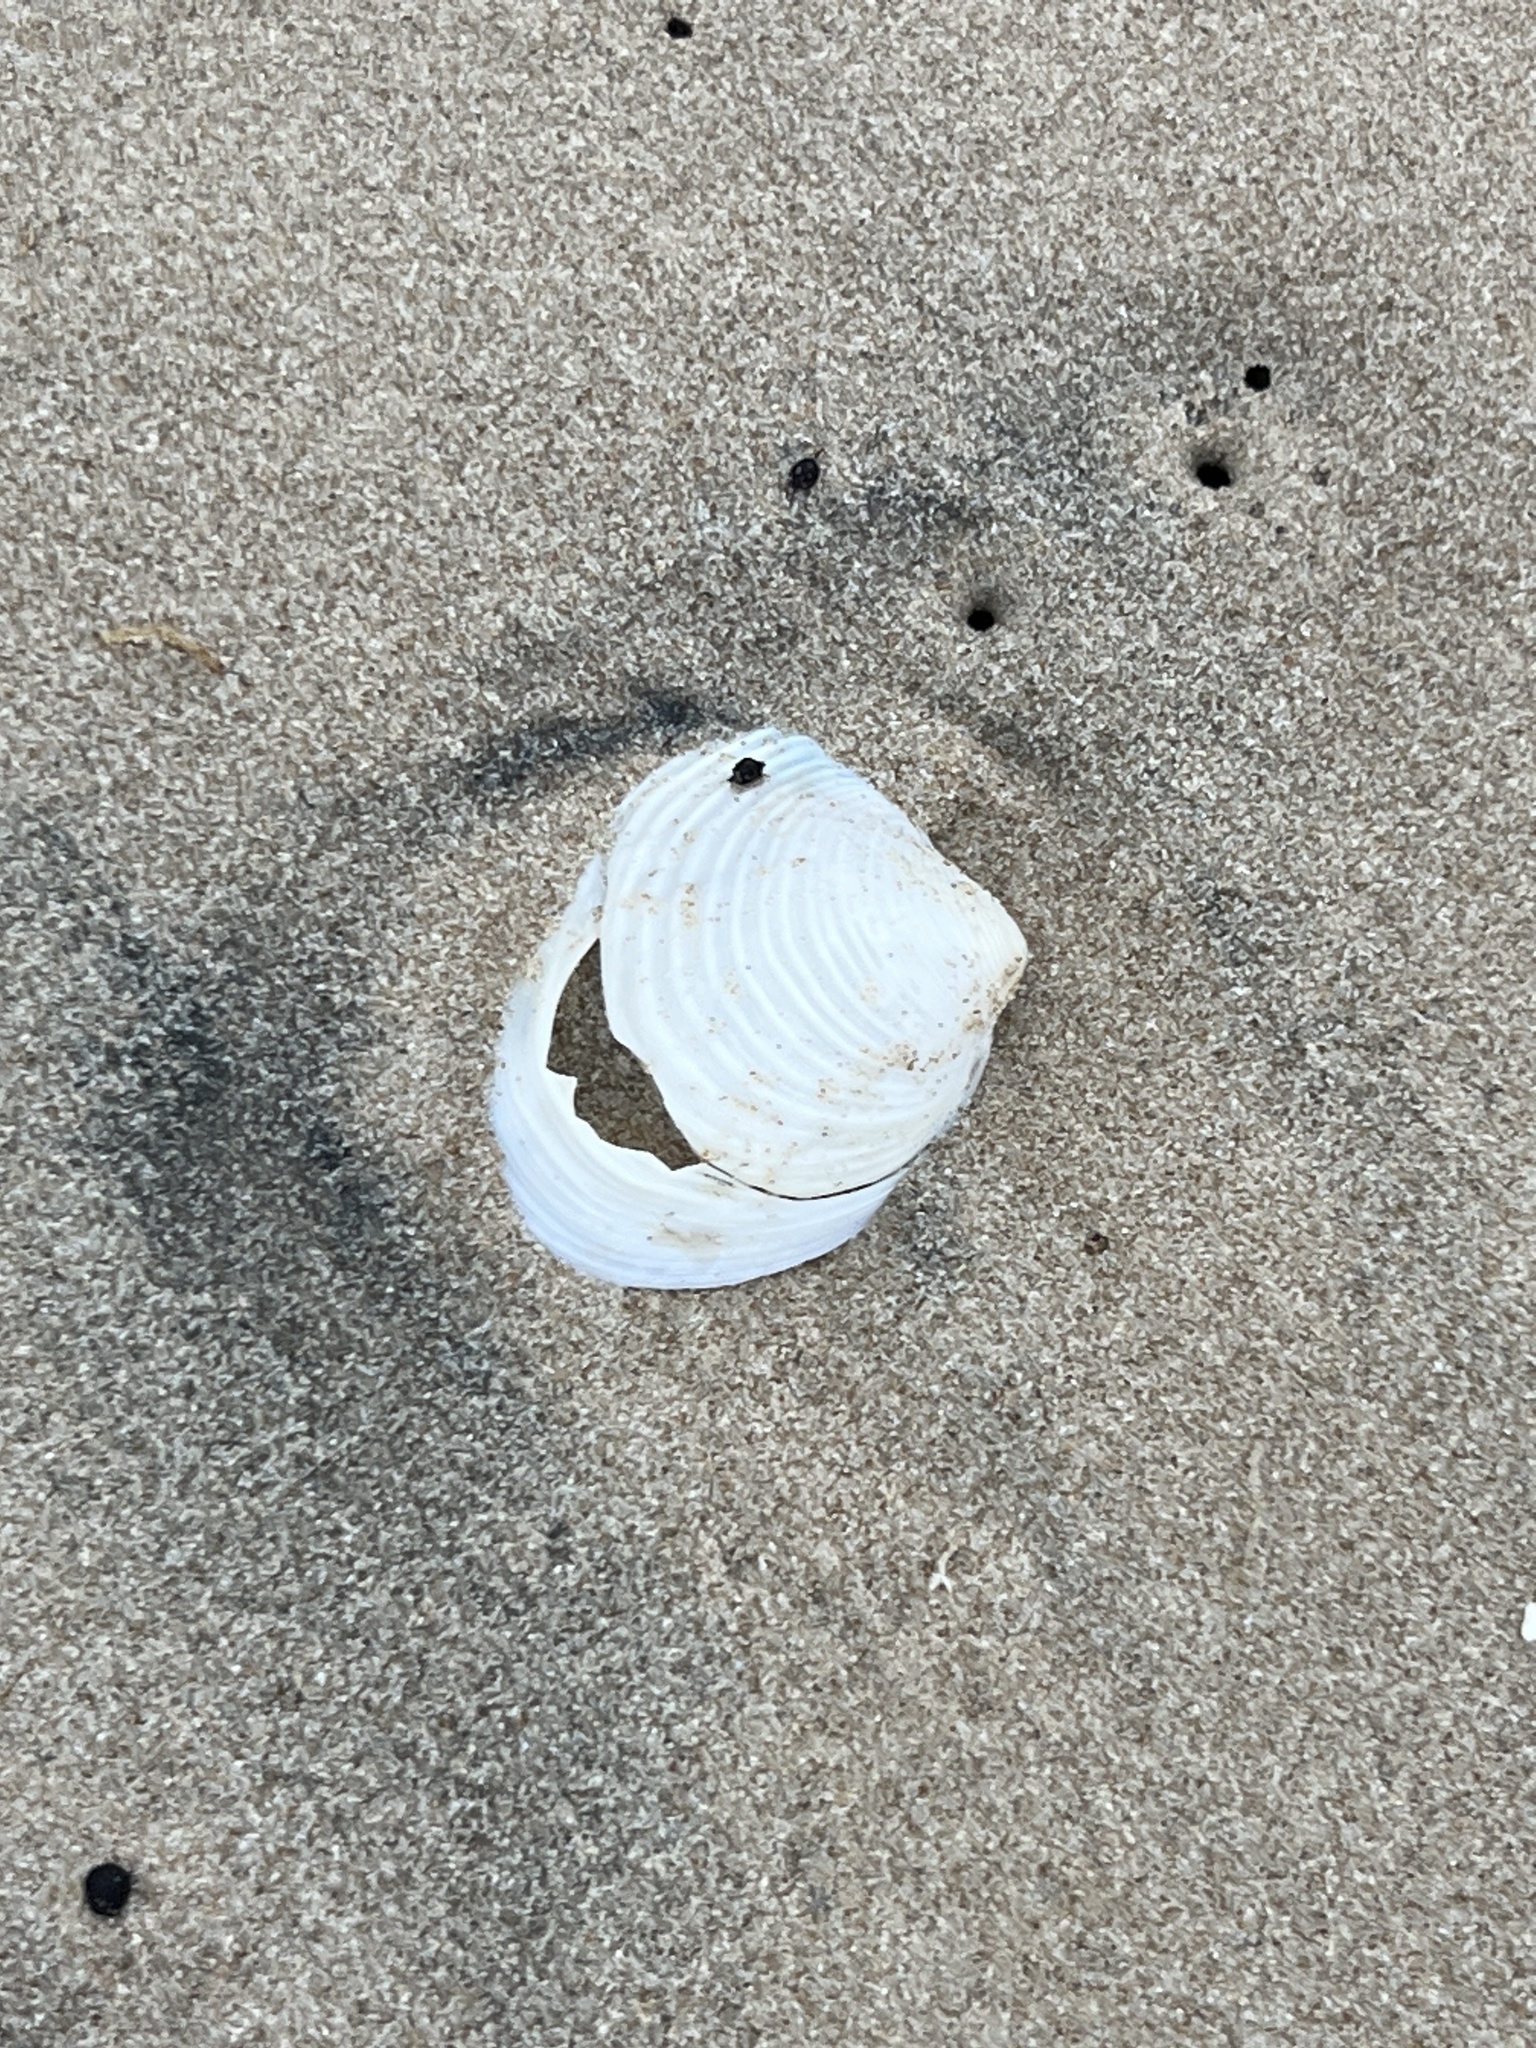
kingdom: Animalia
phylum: Mollusca
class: Bivalvia
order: Venerida
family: Anatinellidae
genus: Raeta
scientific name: Raeta plicatella
